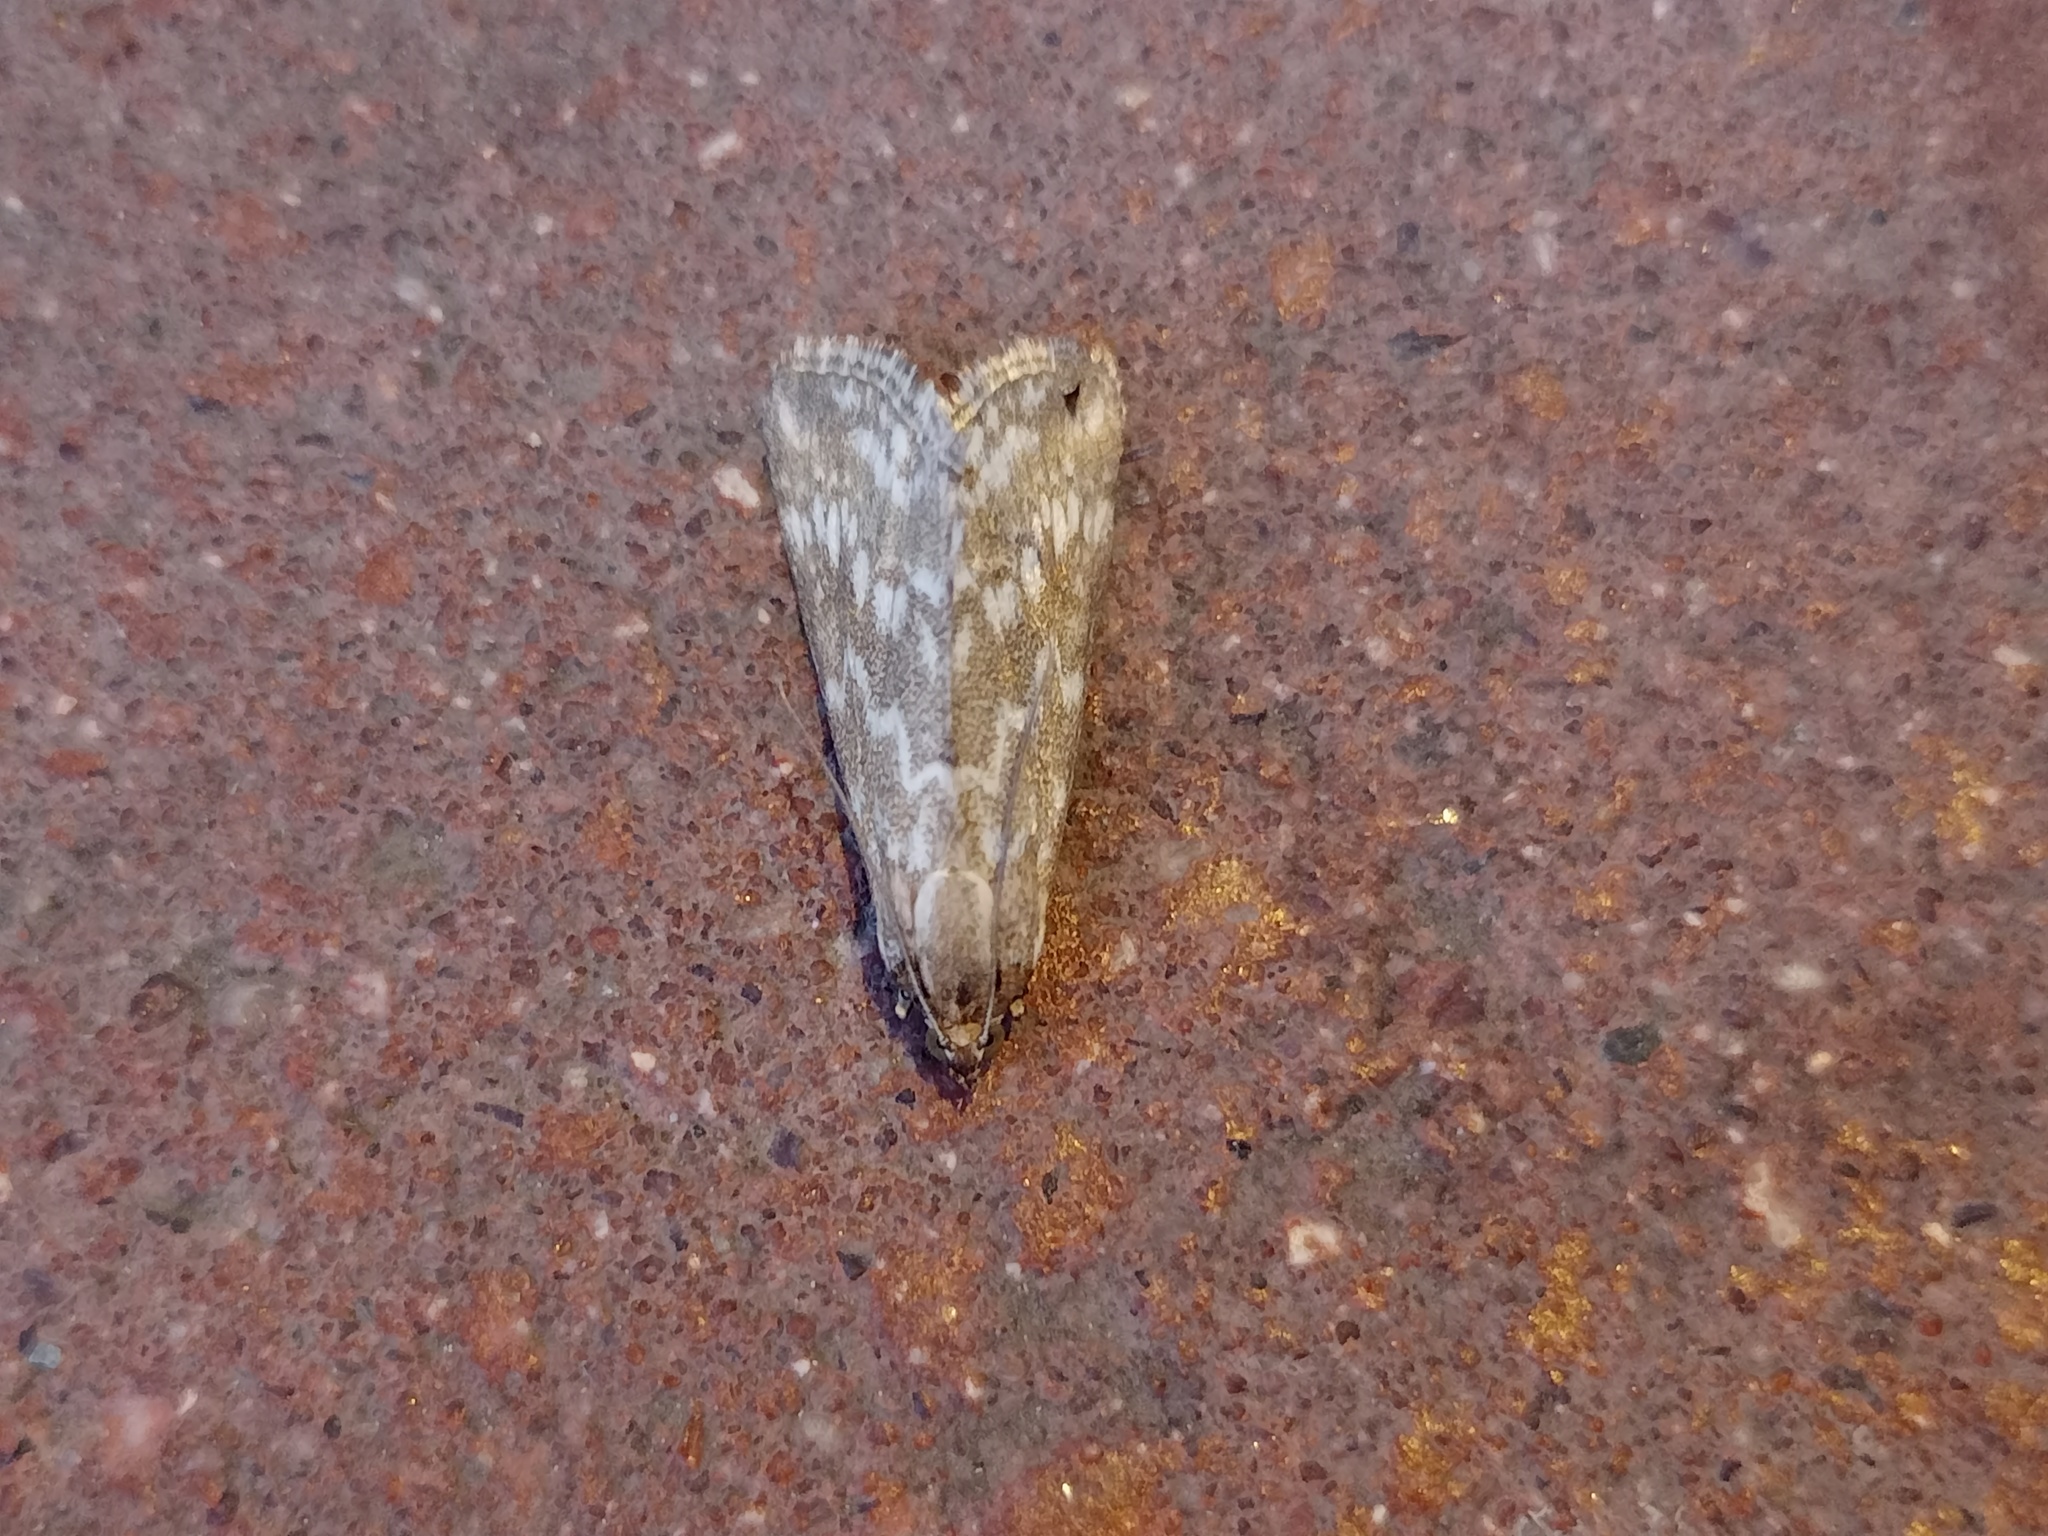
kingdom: Animalia
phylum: Arthropoda
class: Insecta
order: Lepidoptera
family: Crambidae
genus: Evergestis
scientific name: Evergestis frumentalis
